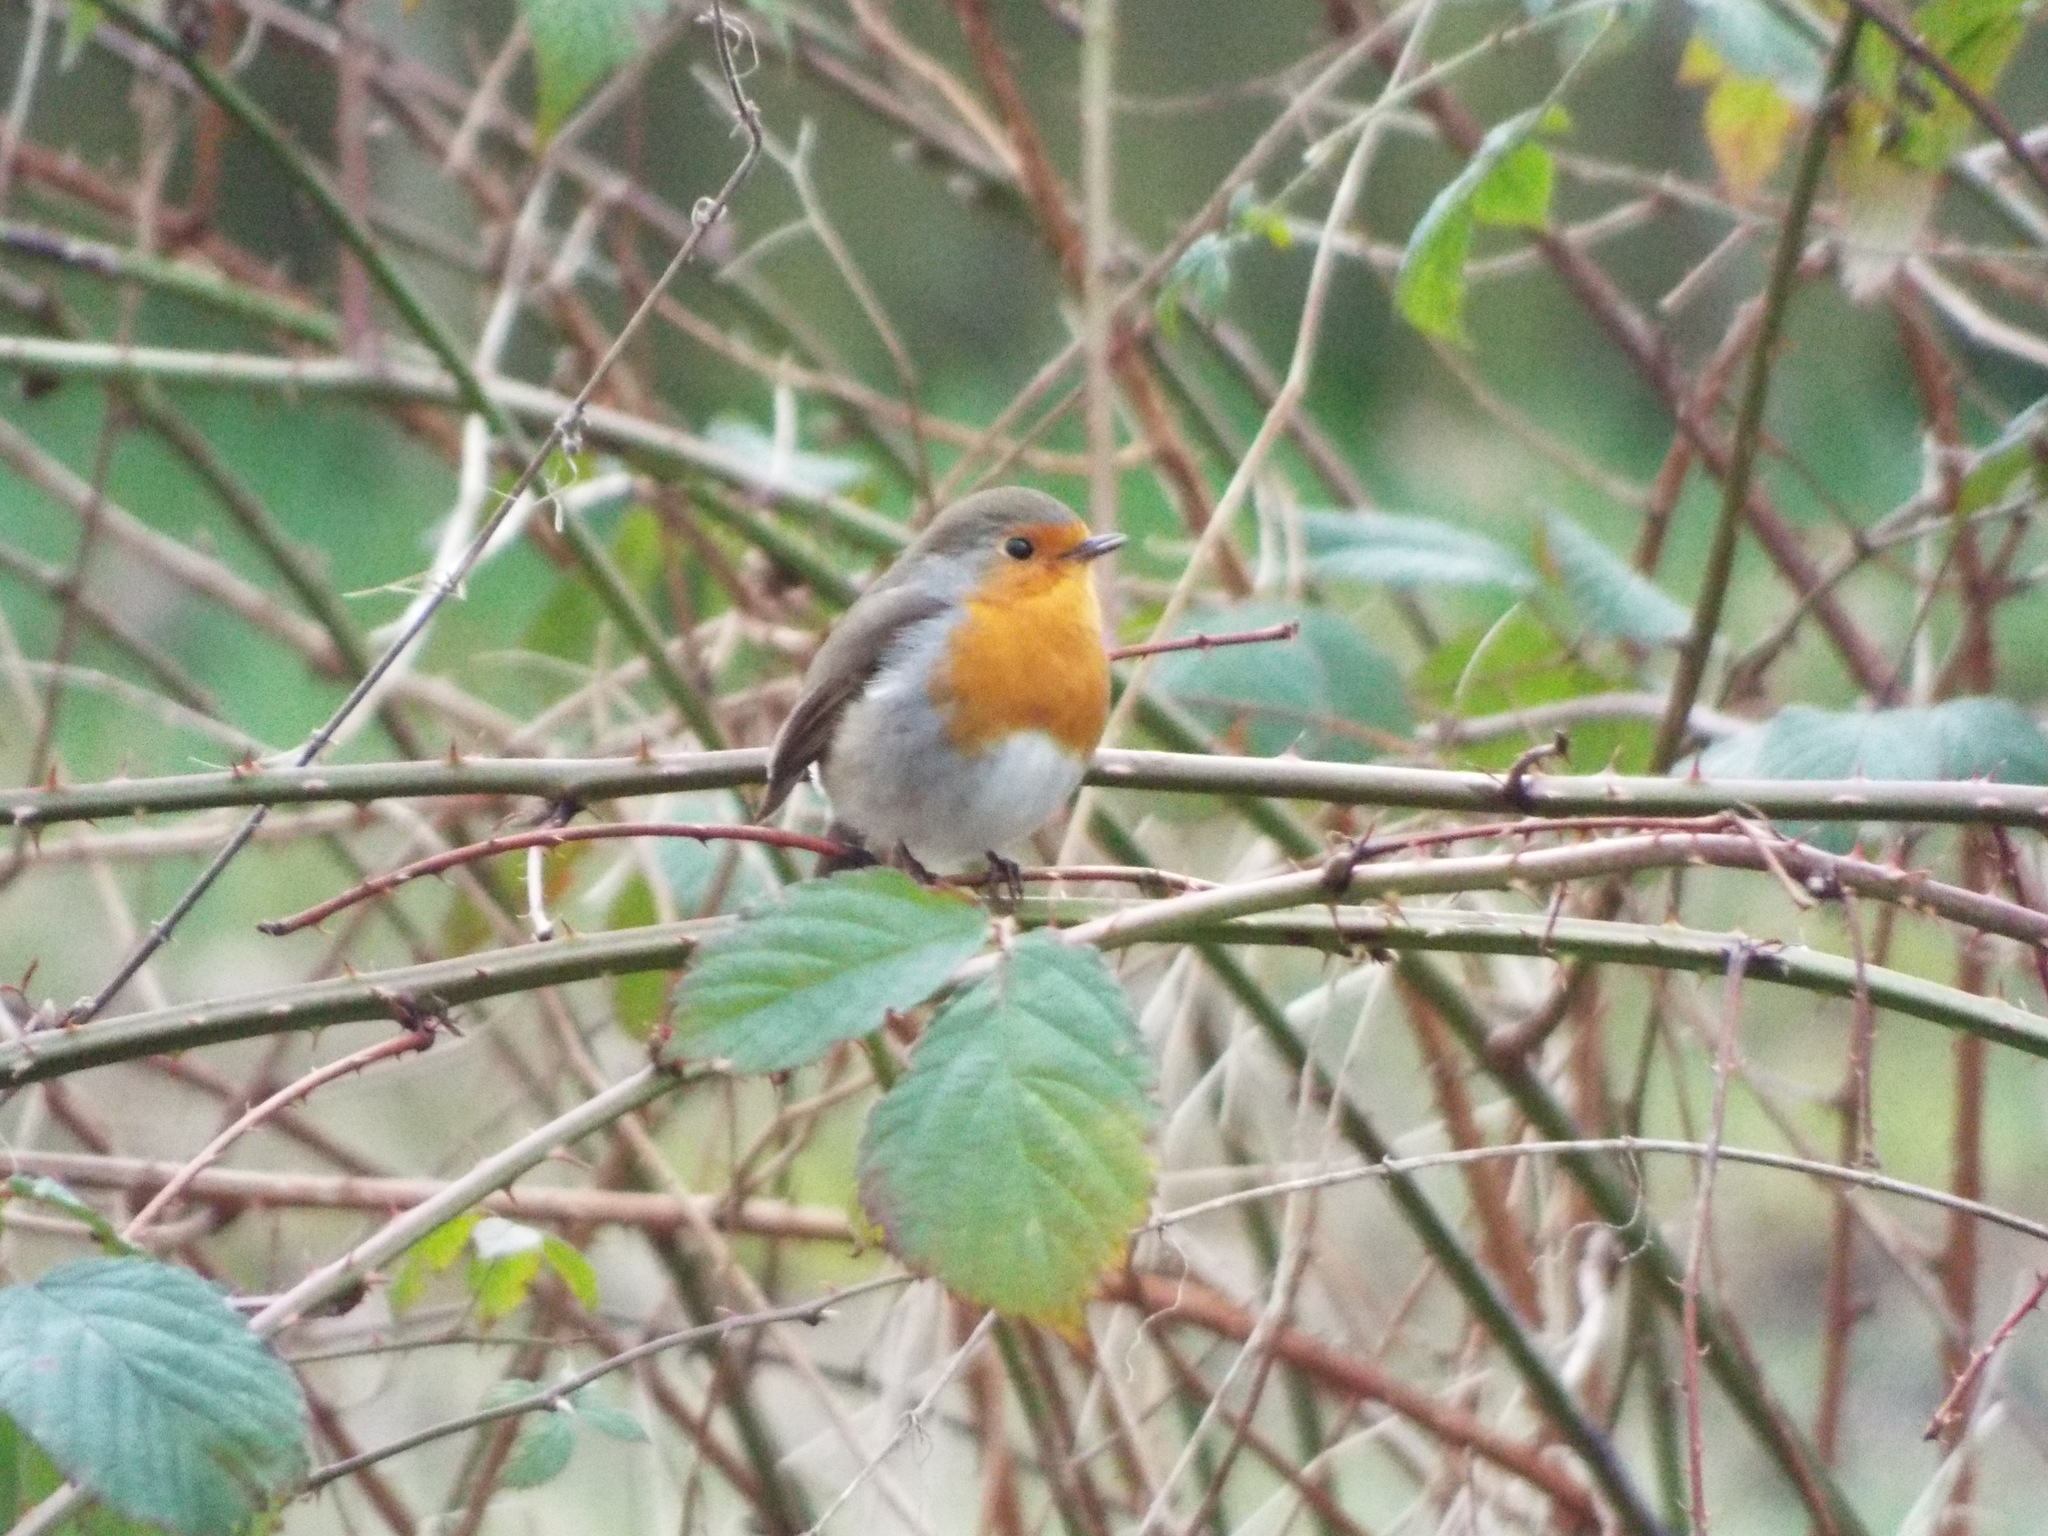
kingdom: Animalia
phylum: Chordata
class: Aves
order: Passeriformes
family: Muscicapidae
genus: Erithacus
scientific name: Erithacus rubecula
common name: European robin
